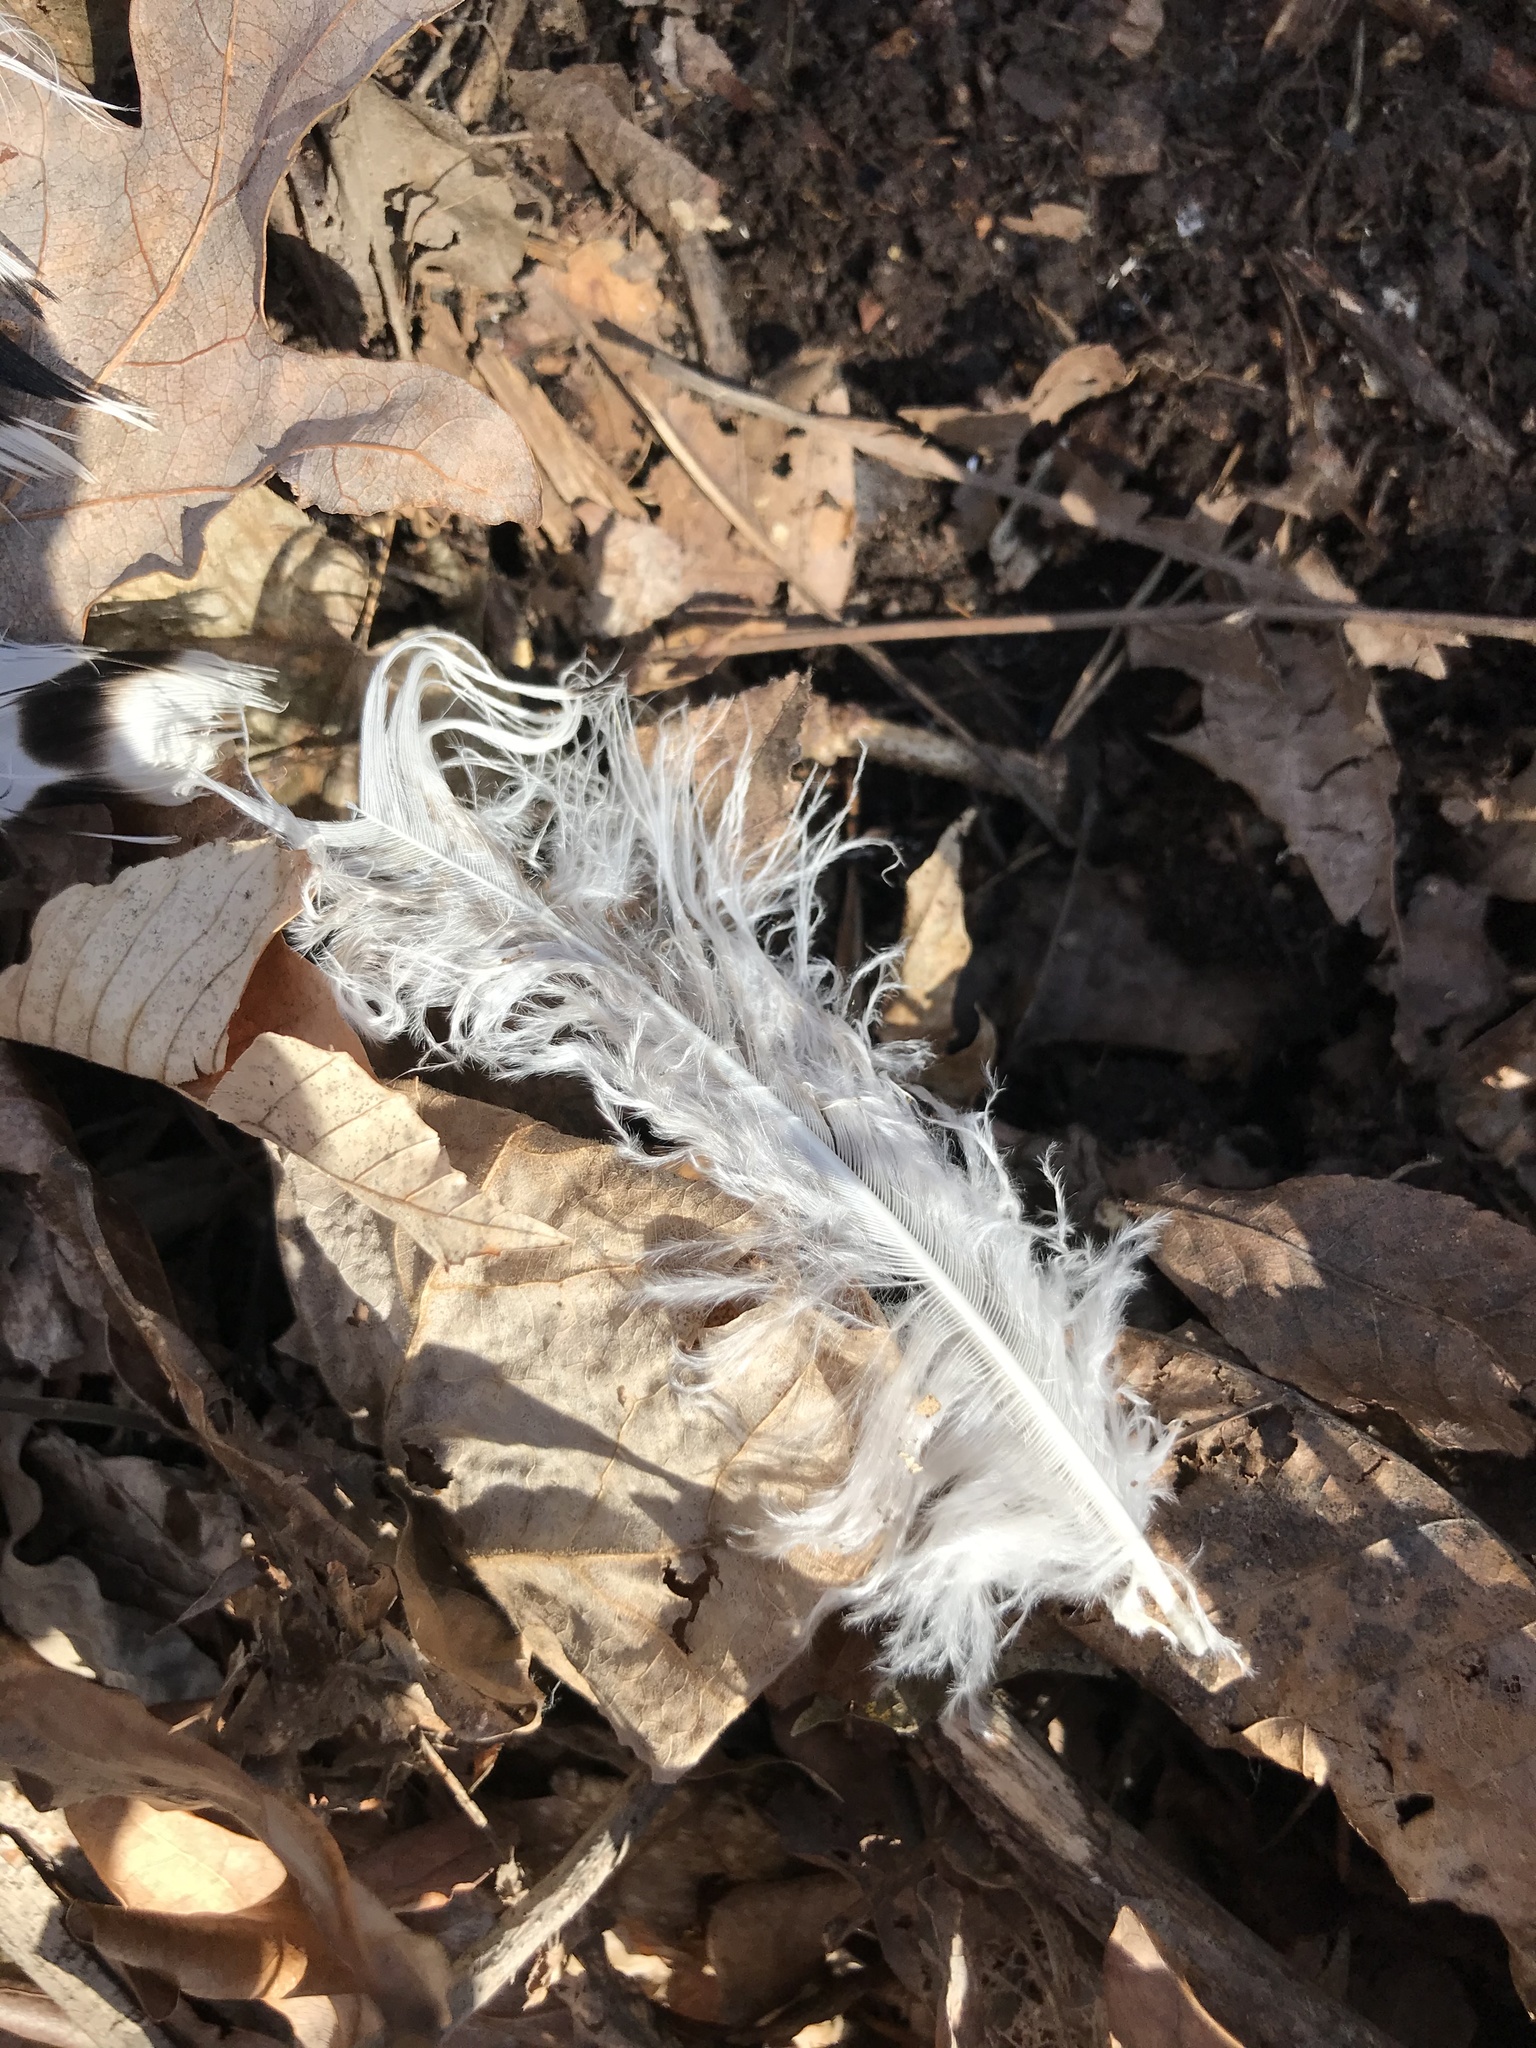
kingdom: Animalia
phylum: Chordata
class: Aves
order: Galliformes
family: Phasianidae
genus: Meleagris
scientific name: Meleagris gallopavo
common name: Wild turkey
